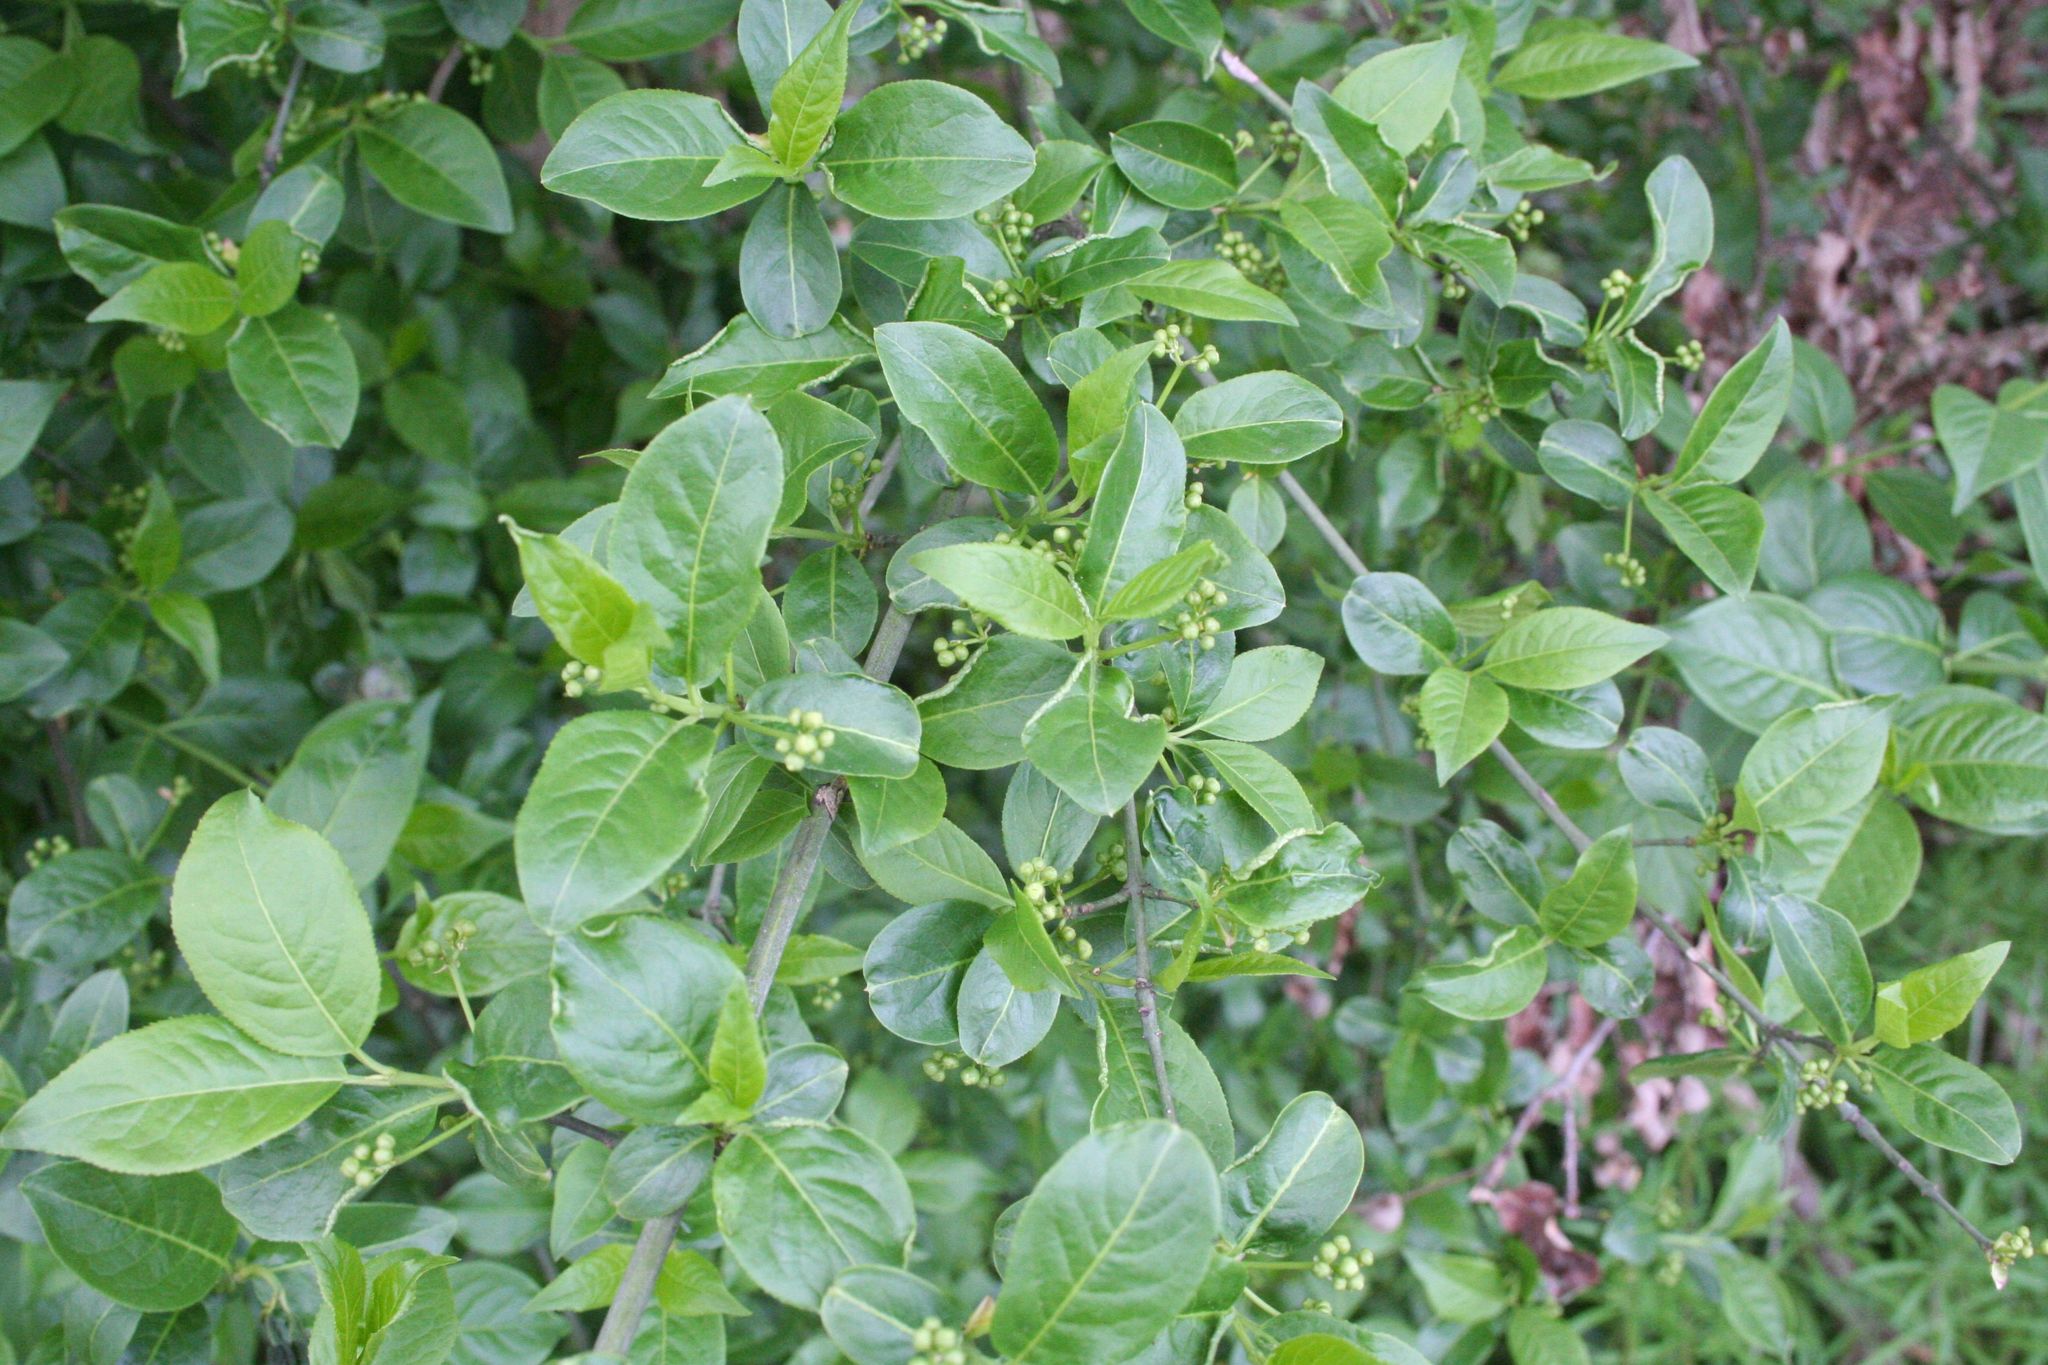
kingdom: Plantae
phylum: Tracheophyta
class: Magnoliopsida
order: Celastrales
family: Celastraceae
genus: Euonymus
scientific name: Euonymus europaeus
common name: Spindle
